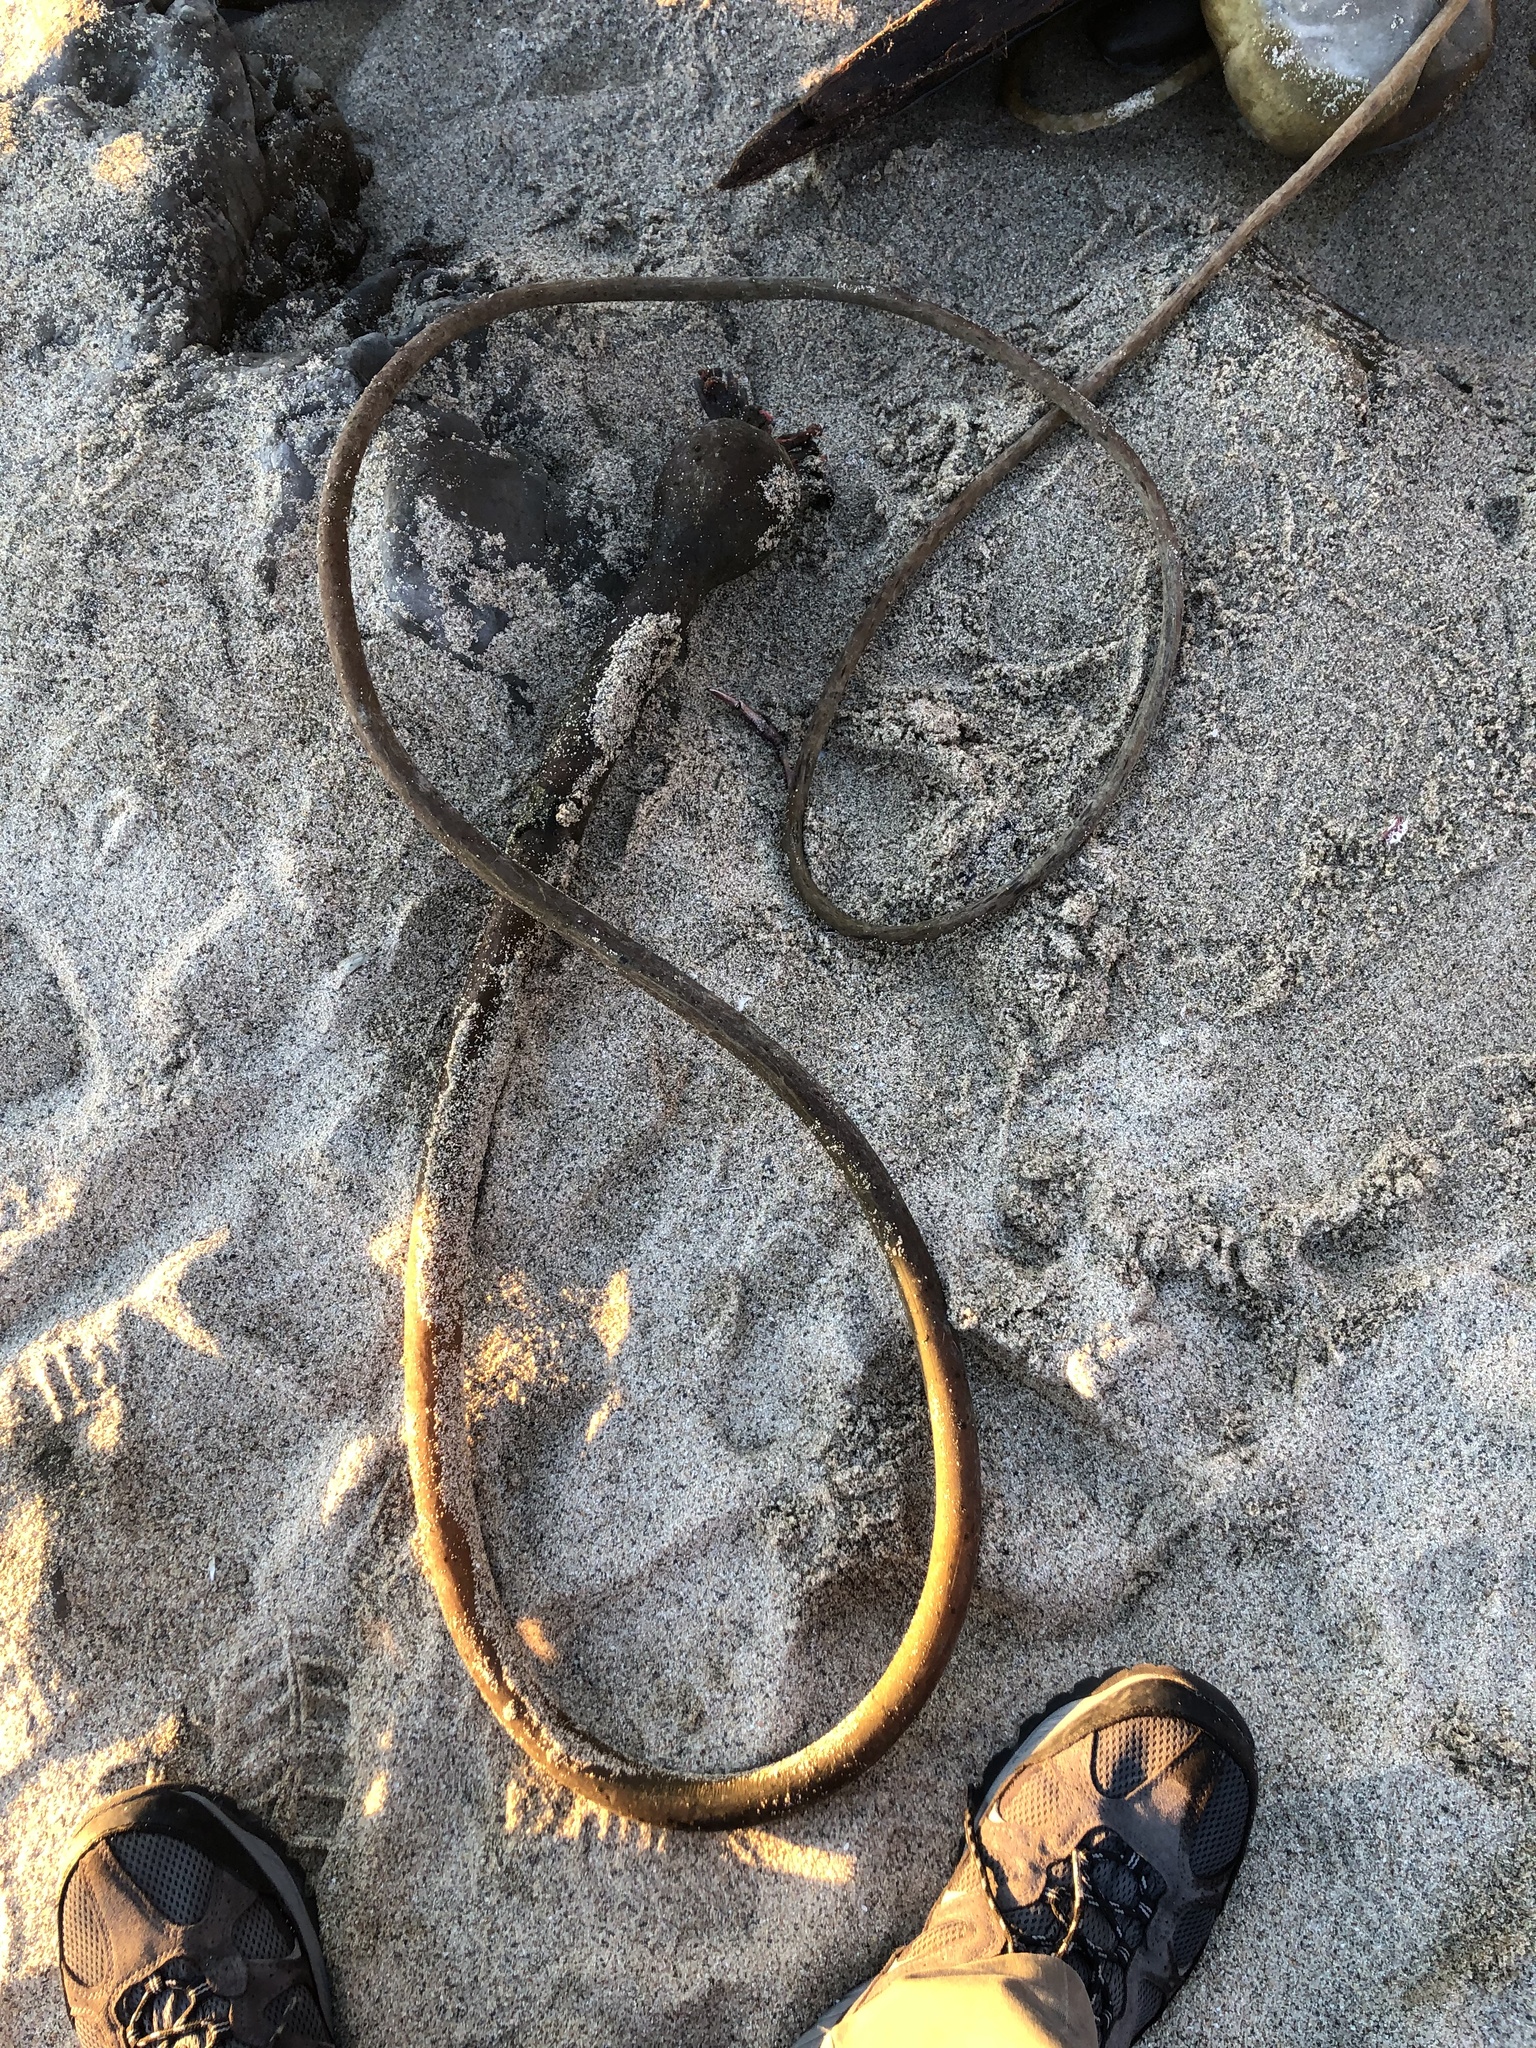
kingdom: Chromista
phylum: Ochrophyta
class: Phaeophyceae
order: Laminariales
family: Laminariaceae
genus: Nereocystis
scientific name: Nereocystis luetkeana
